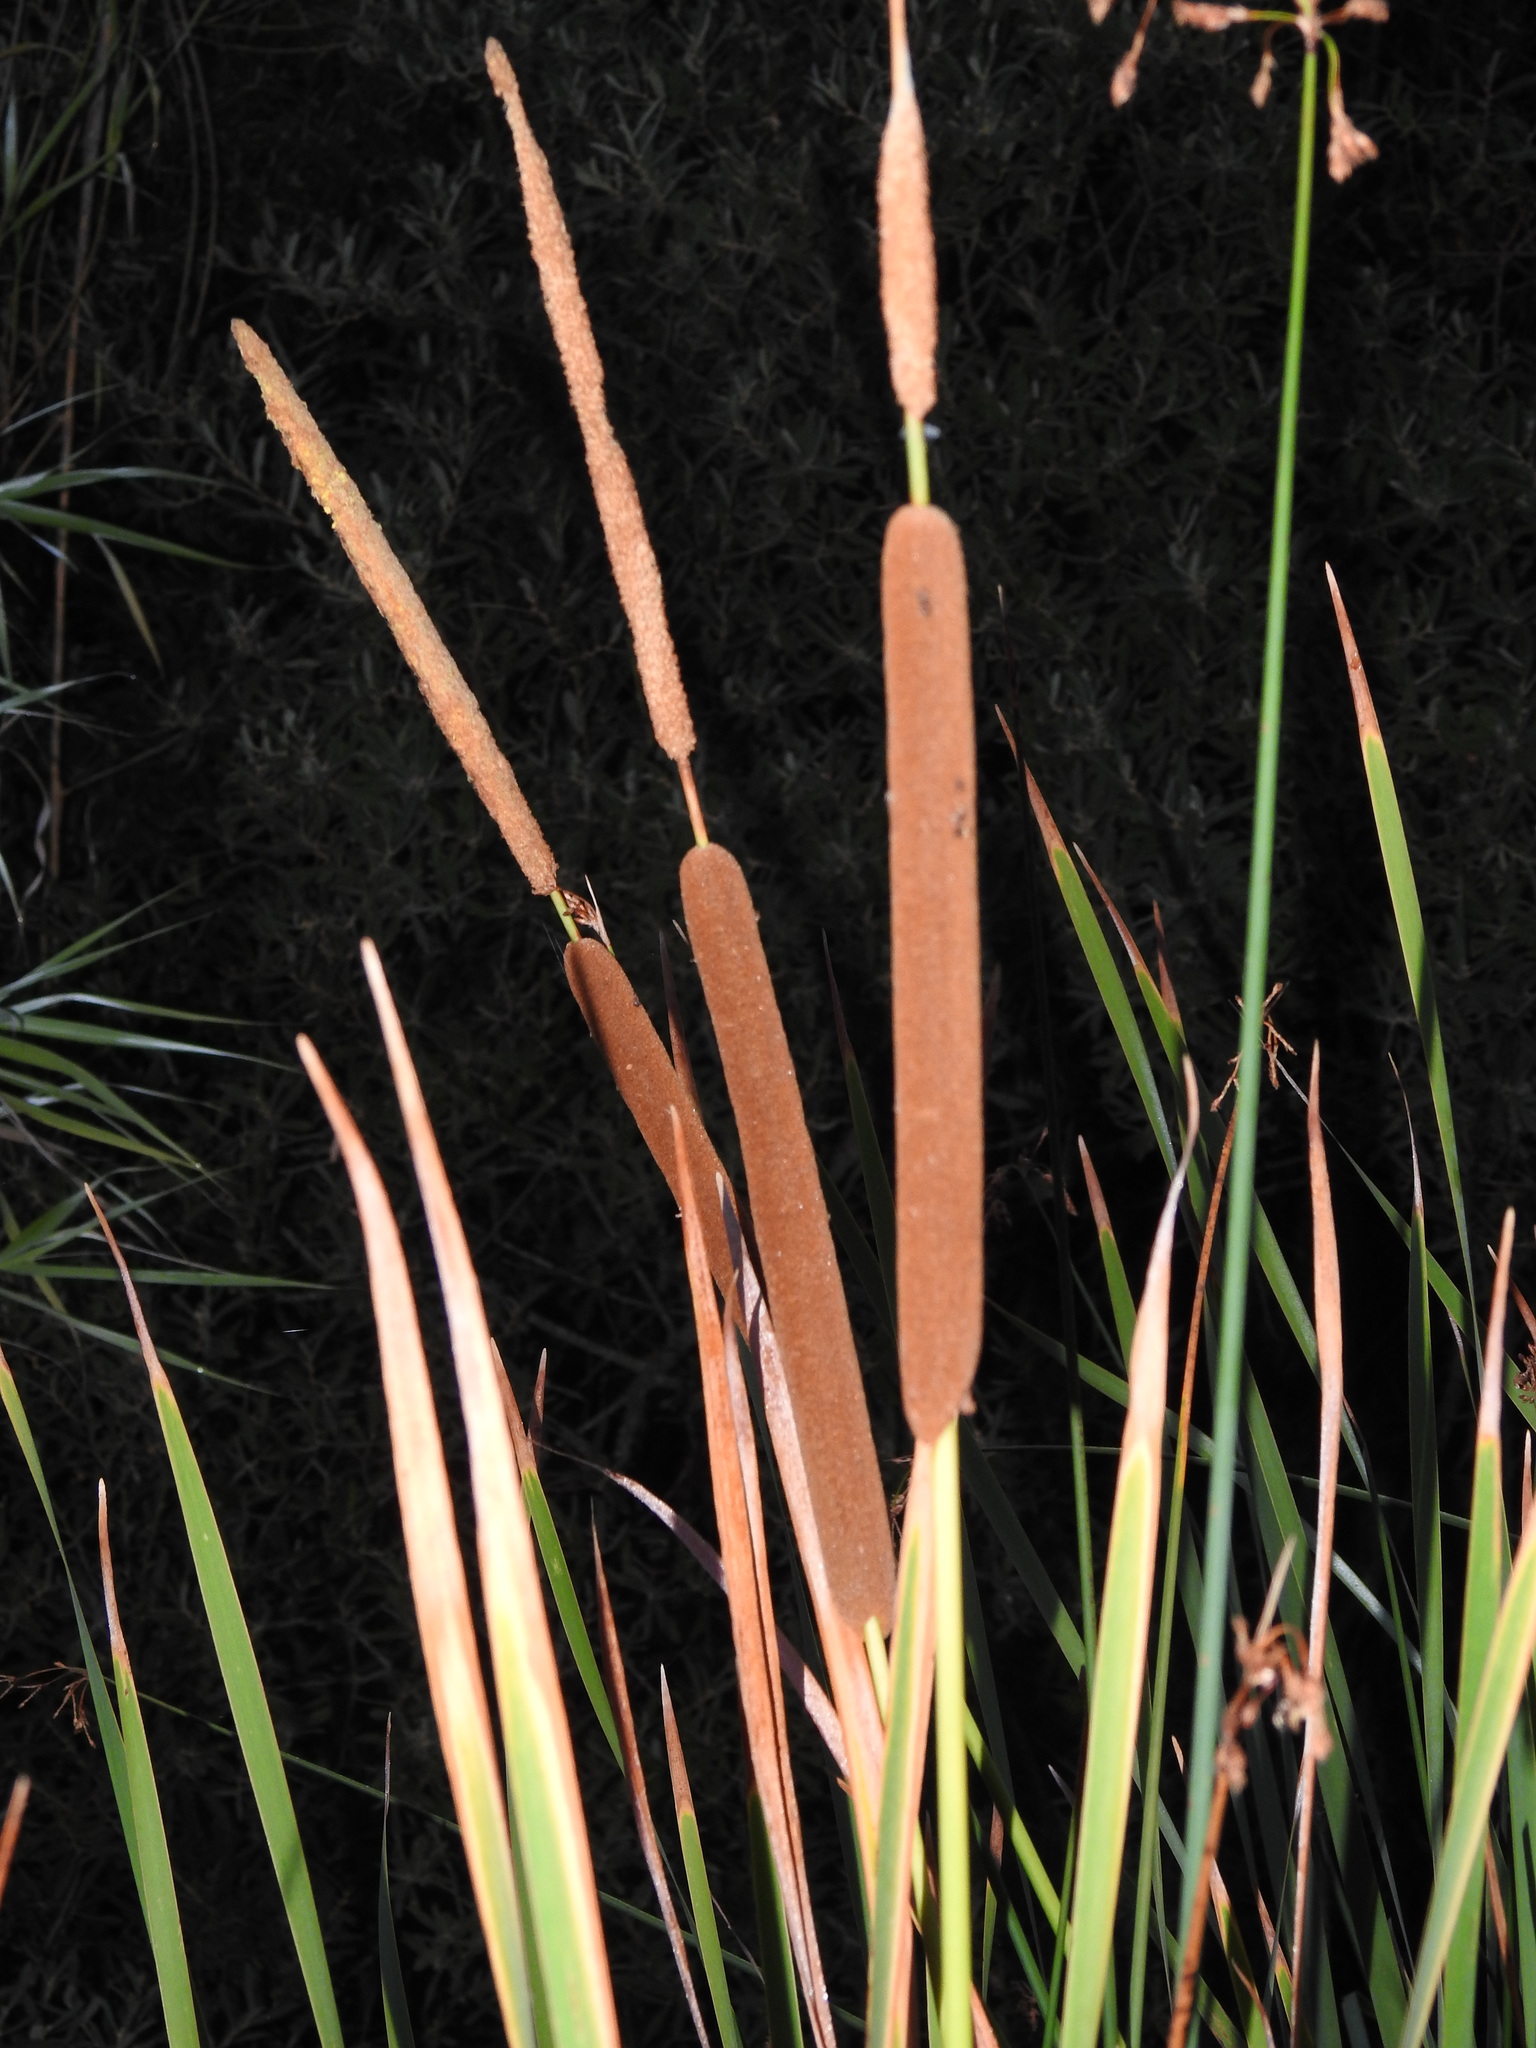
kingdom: Plantae
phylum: Tracheophyta
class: Liliopsida
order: Poales
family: Typhaceae
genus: Typha
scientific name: Typha domingensis
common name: Southern cattail
